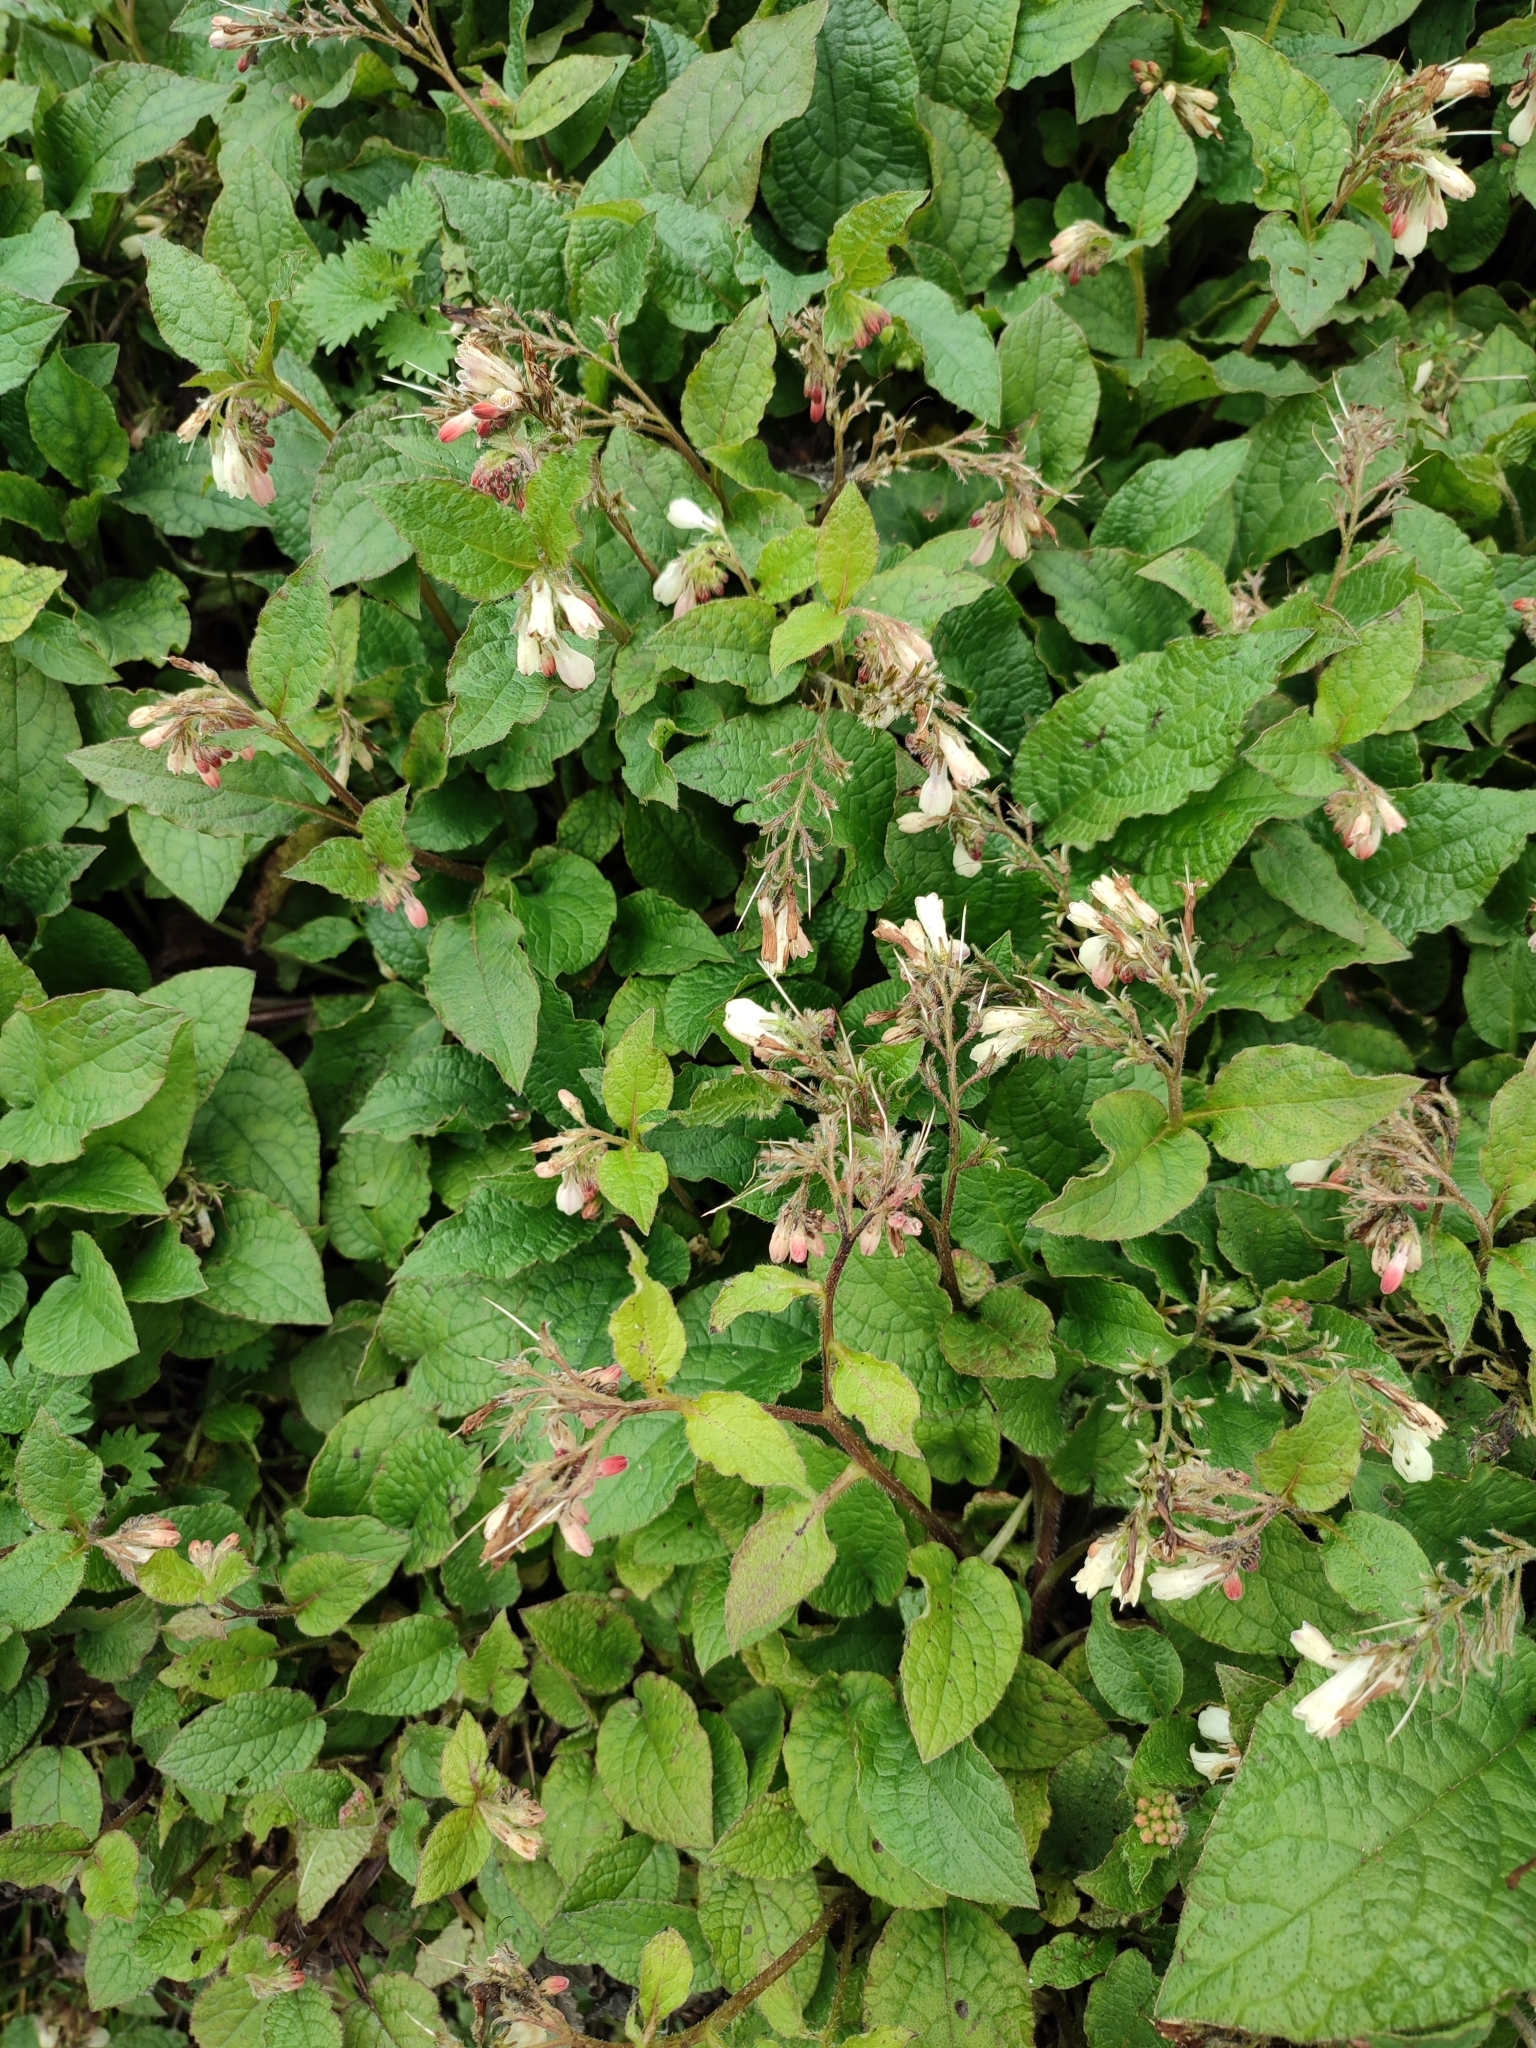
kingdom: Plantae
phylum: Tracheophyta
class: Magnoliopsida
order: Boraginales
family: Boraginaceae
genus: Symphytum
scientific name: Symphytum grandiflorum
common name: Creeping comfrey
